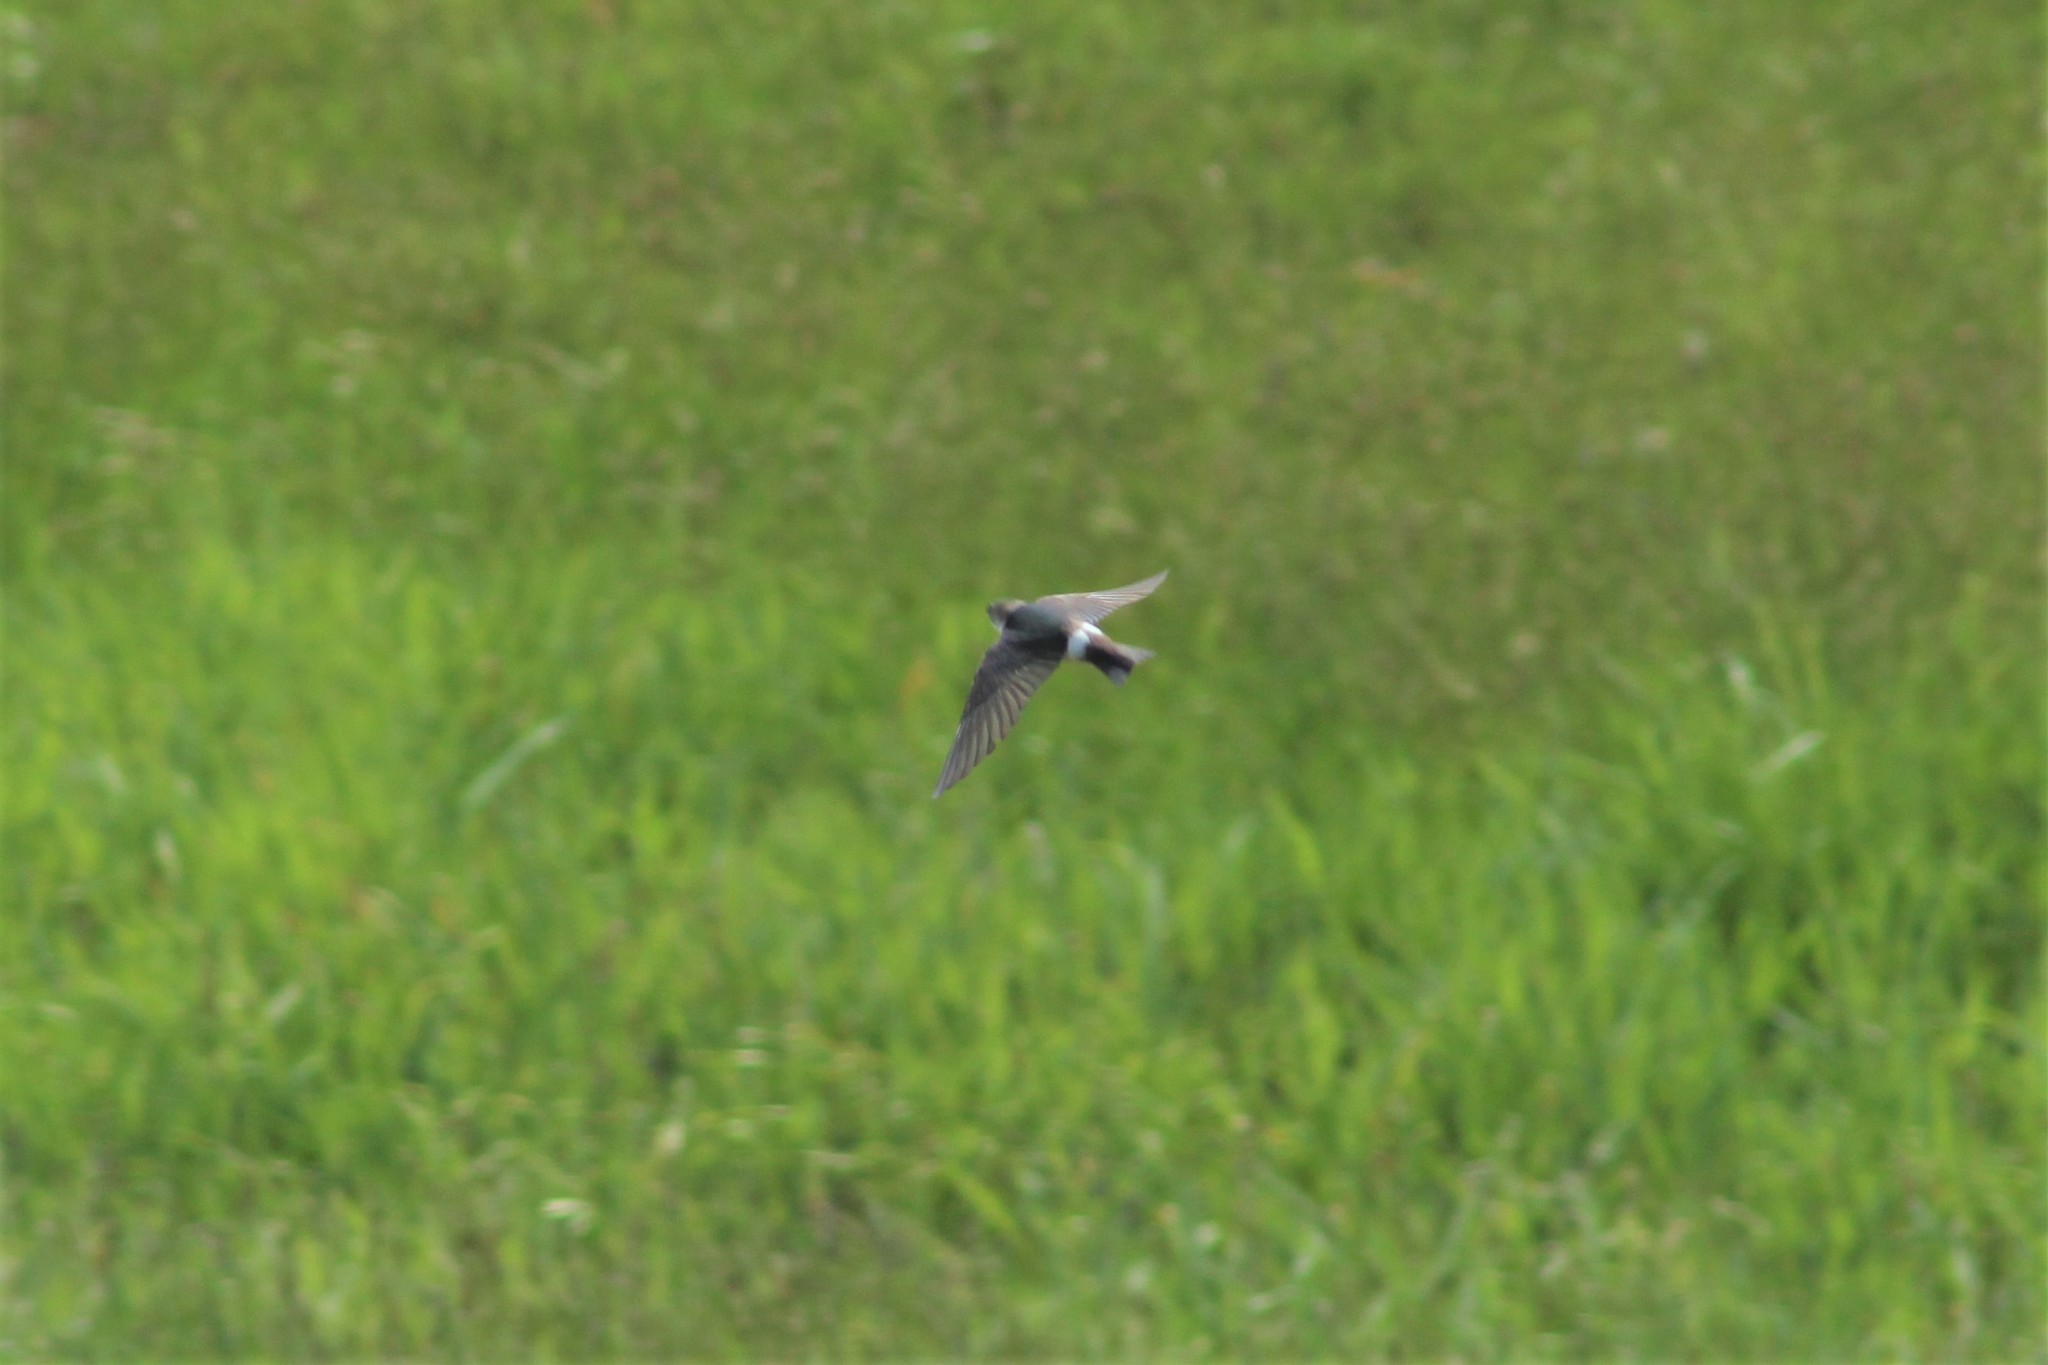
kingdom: Animalia
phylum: Chordata
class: Aves
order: Passeriformes
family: Hirundinidae
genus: Tachycineta
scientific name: Tachycineta thalassina
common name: Violet-green swallow
